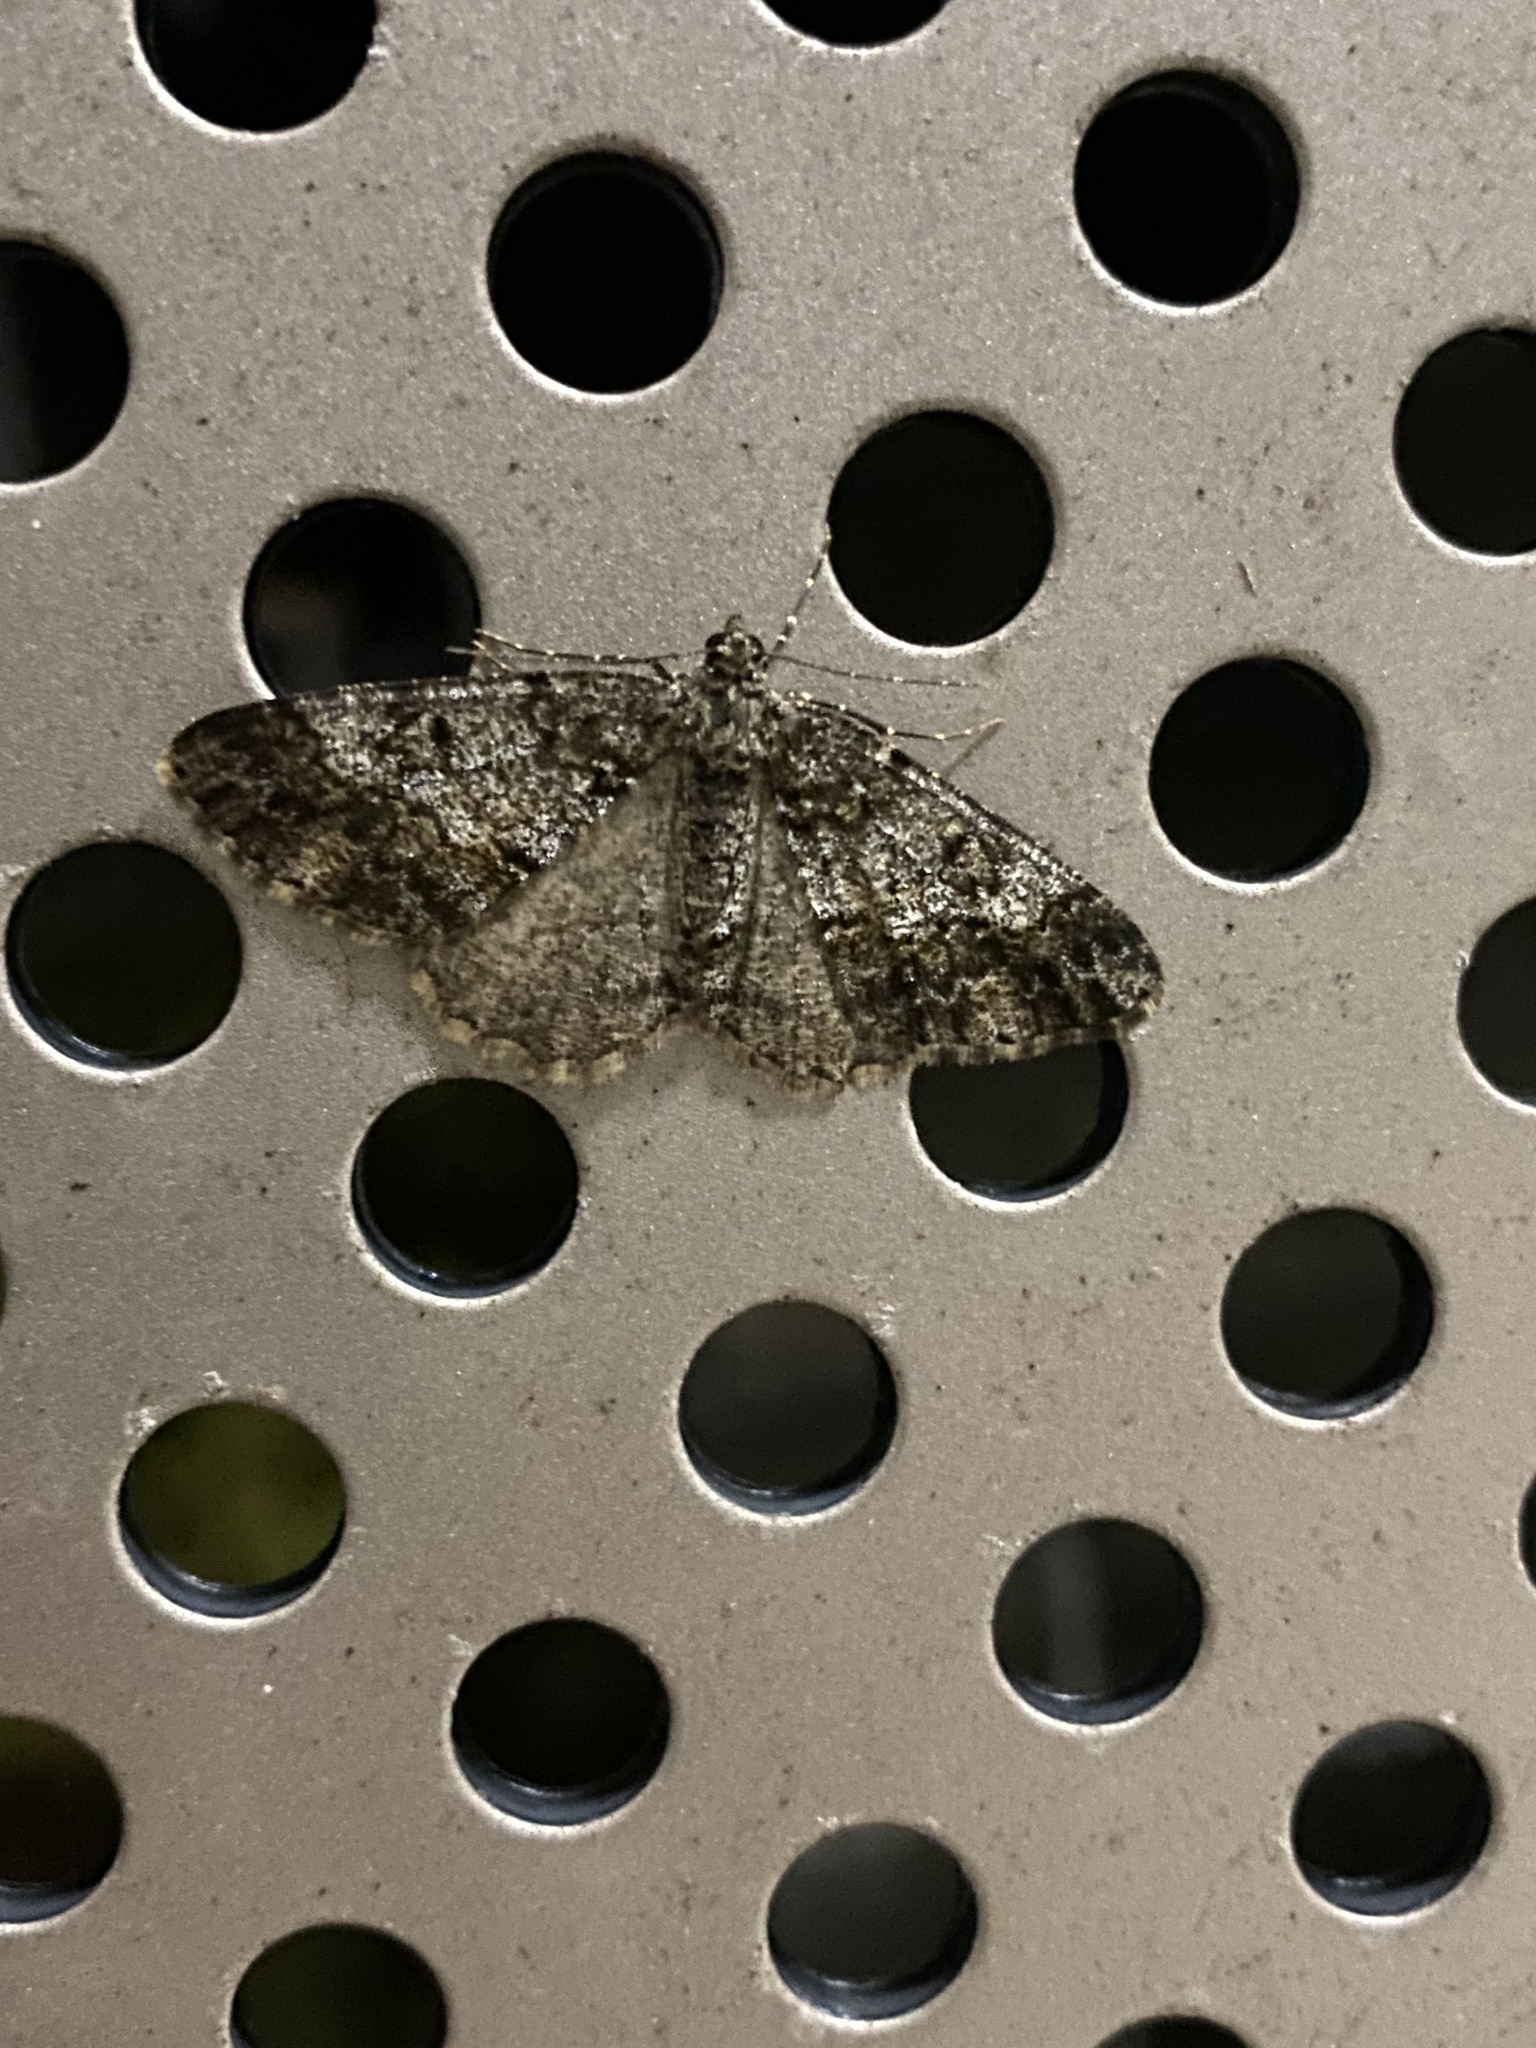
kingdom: Animalia
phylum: Arthropoda
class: Insecta
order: Lepidoptera
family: Geometridae
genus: Alcis
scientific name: Alcis angulifera
